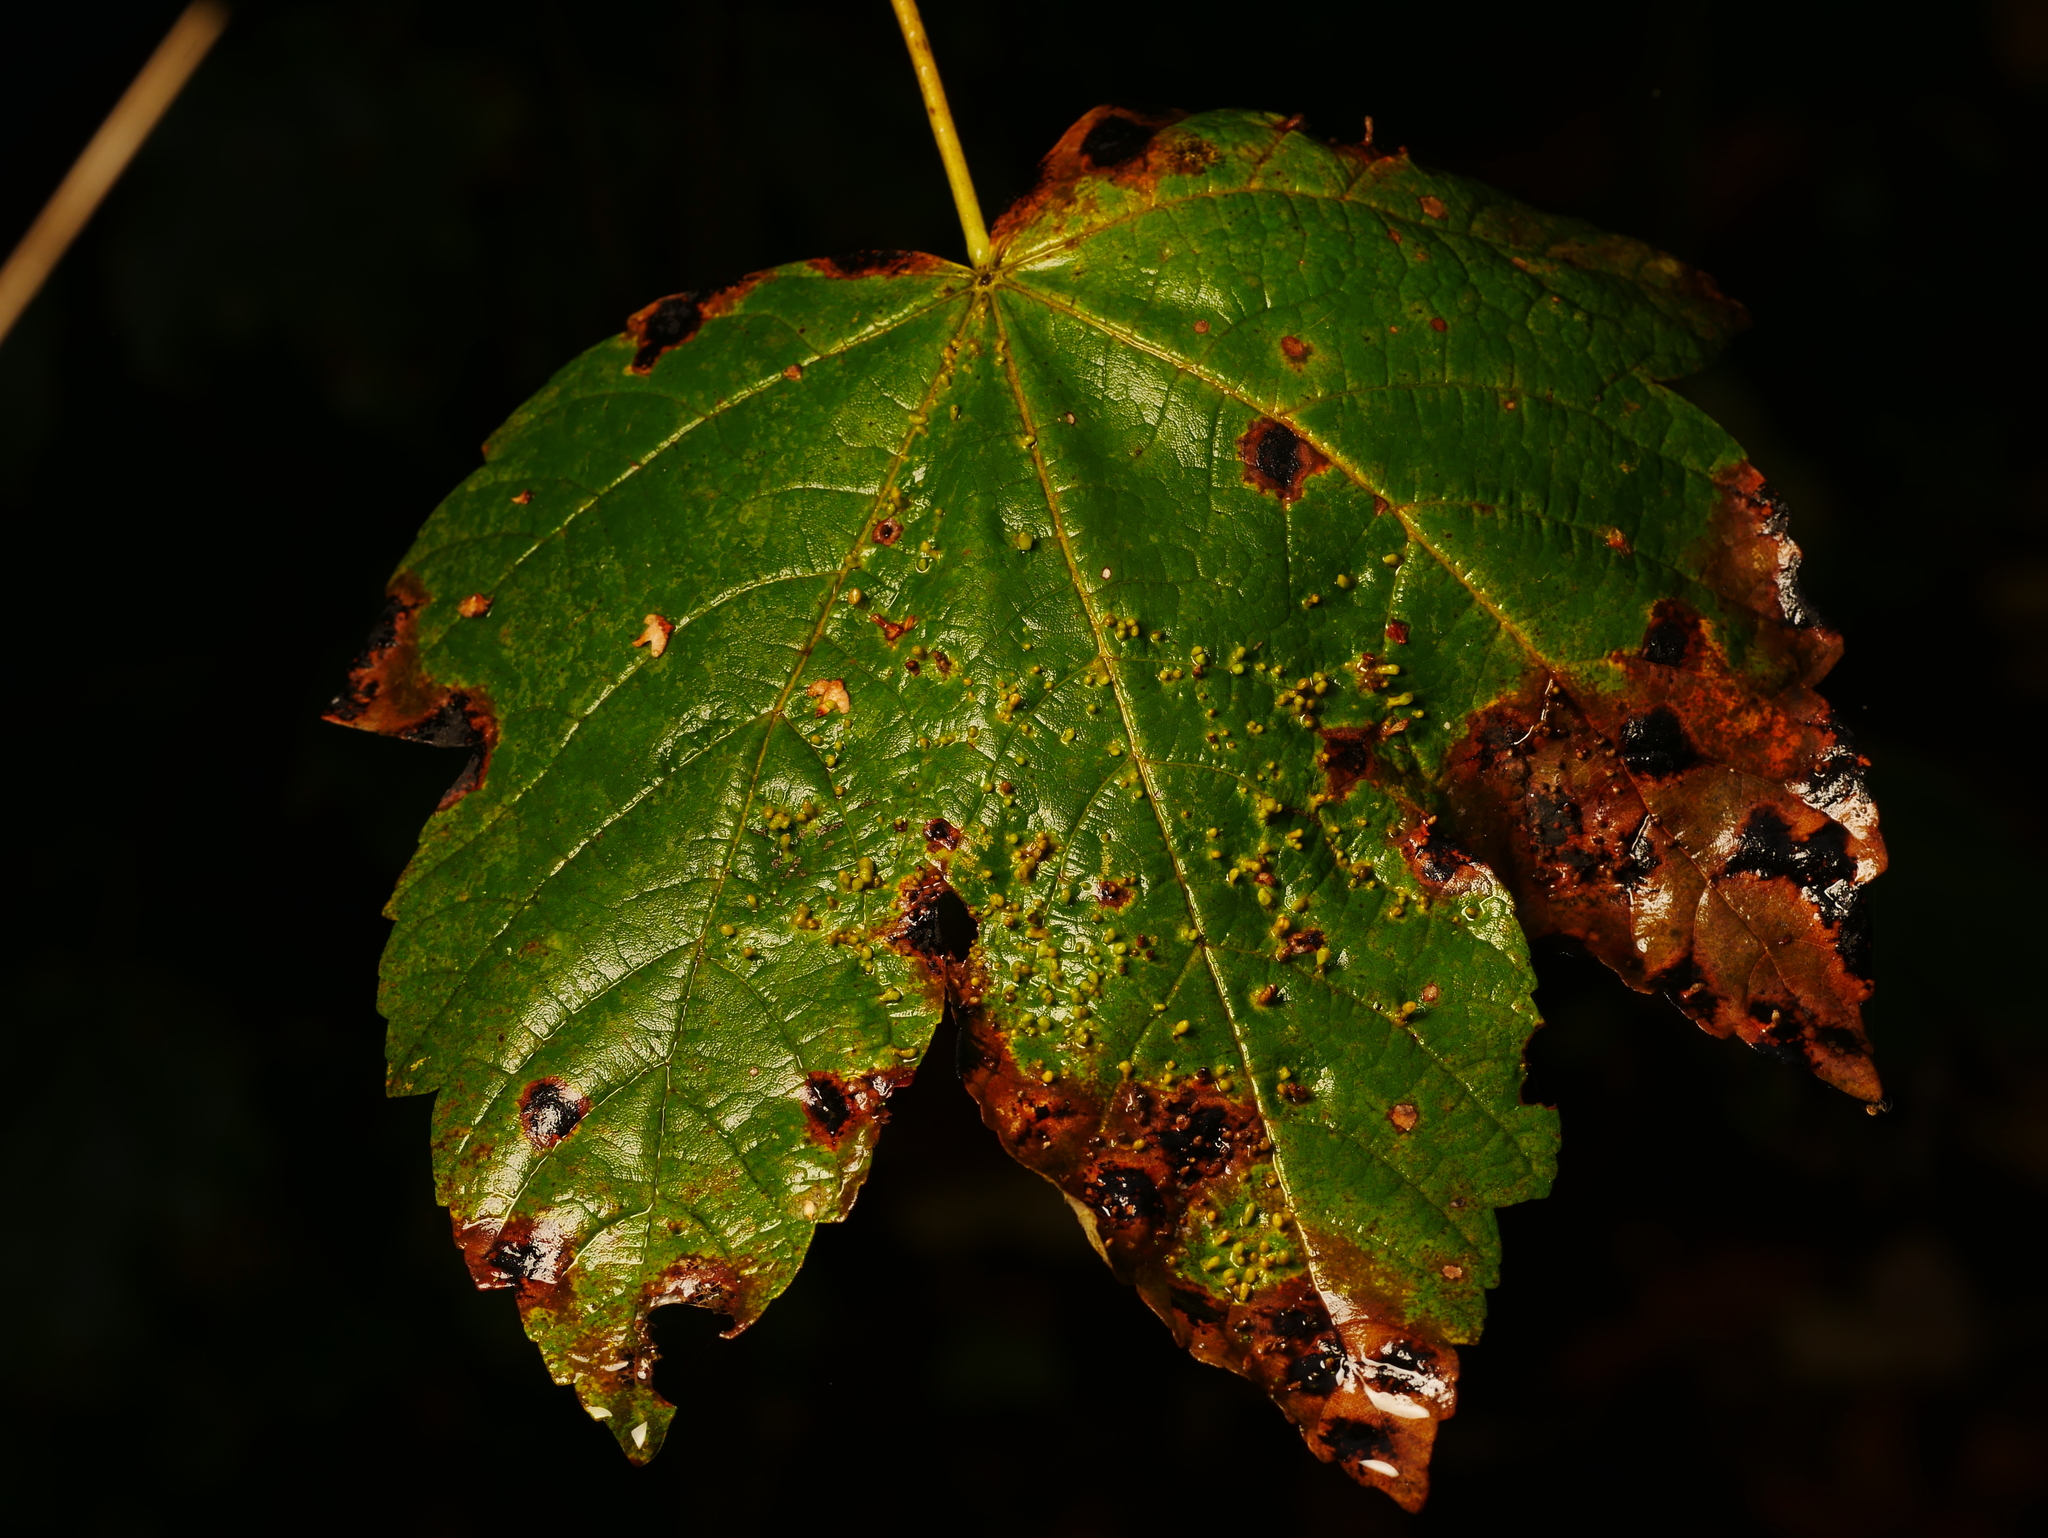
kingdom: Plantae
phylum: Tracheophyta
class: Magnoliopsida
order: Sapindales
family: Sapindaceae
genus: Acer
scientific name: Acer pseudoplatanus
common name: Sycamore
